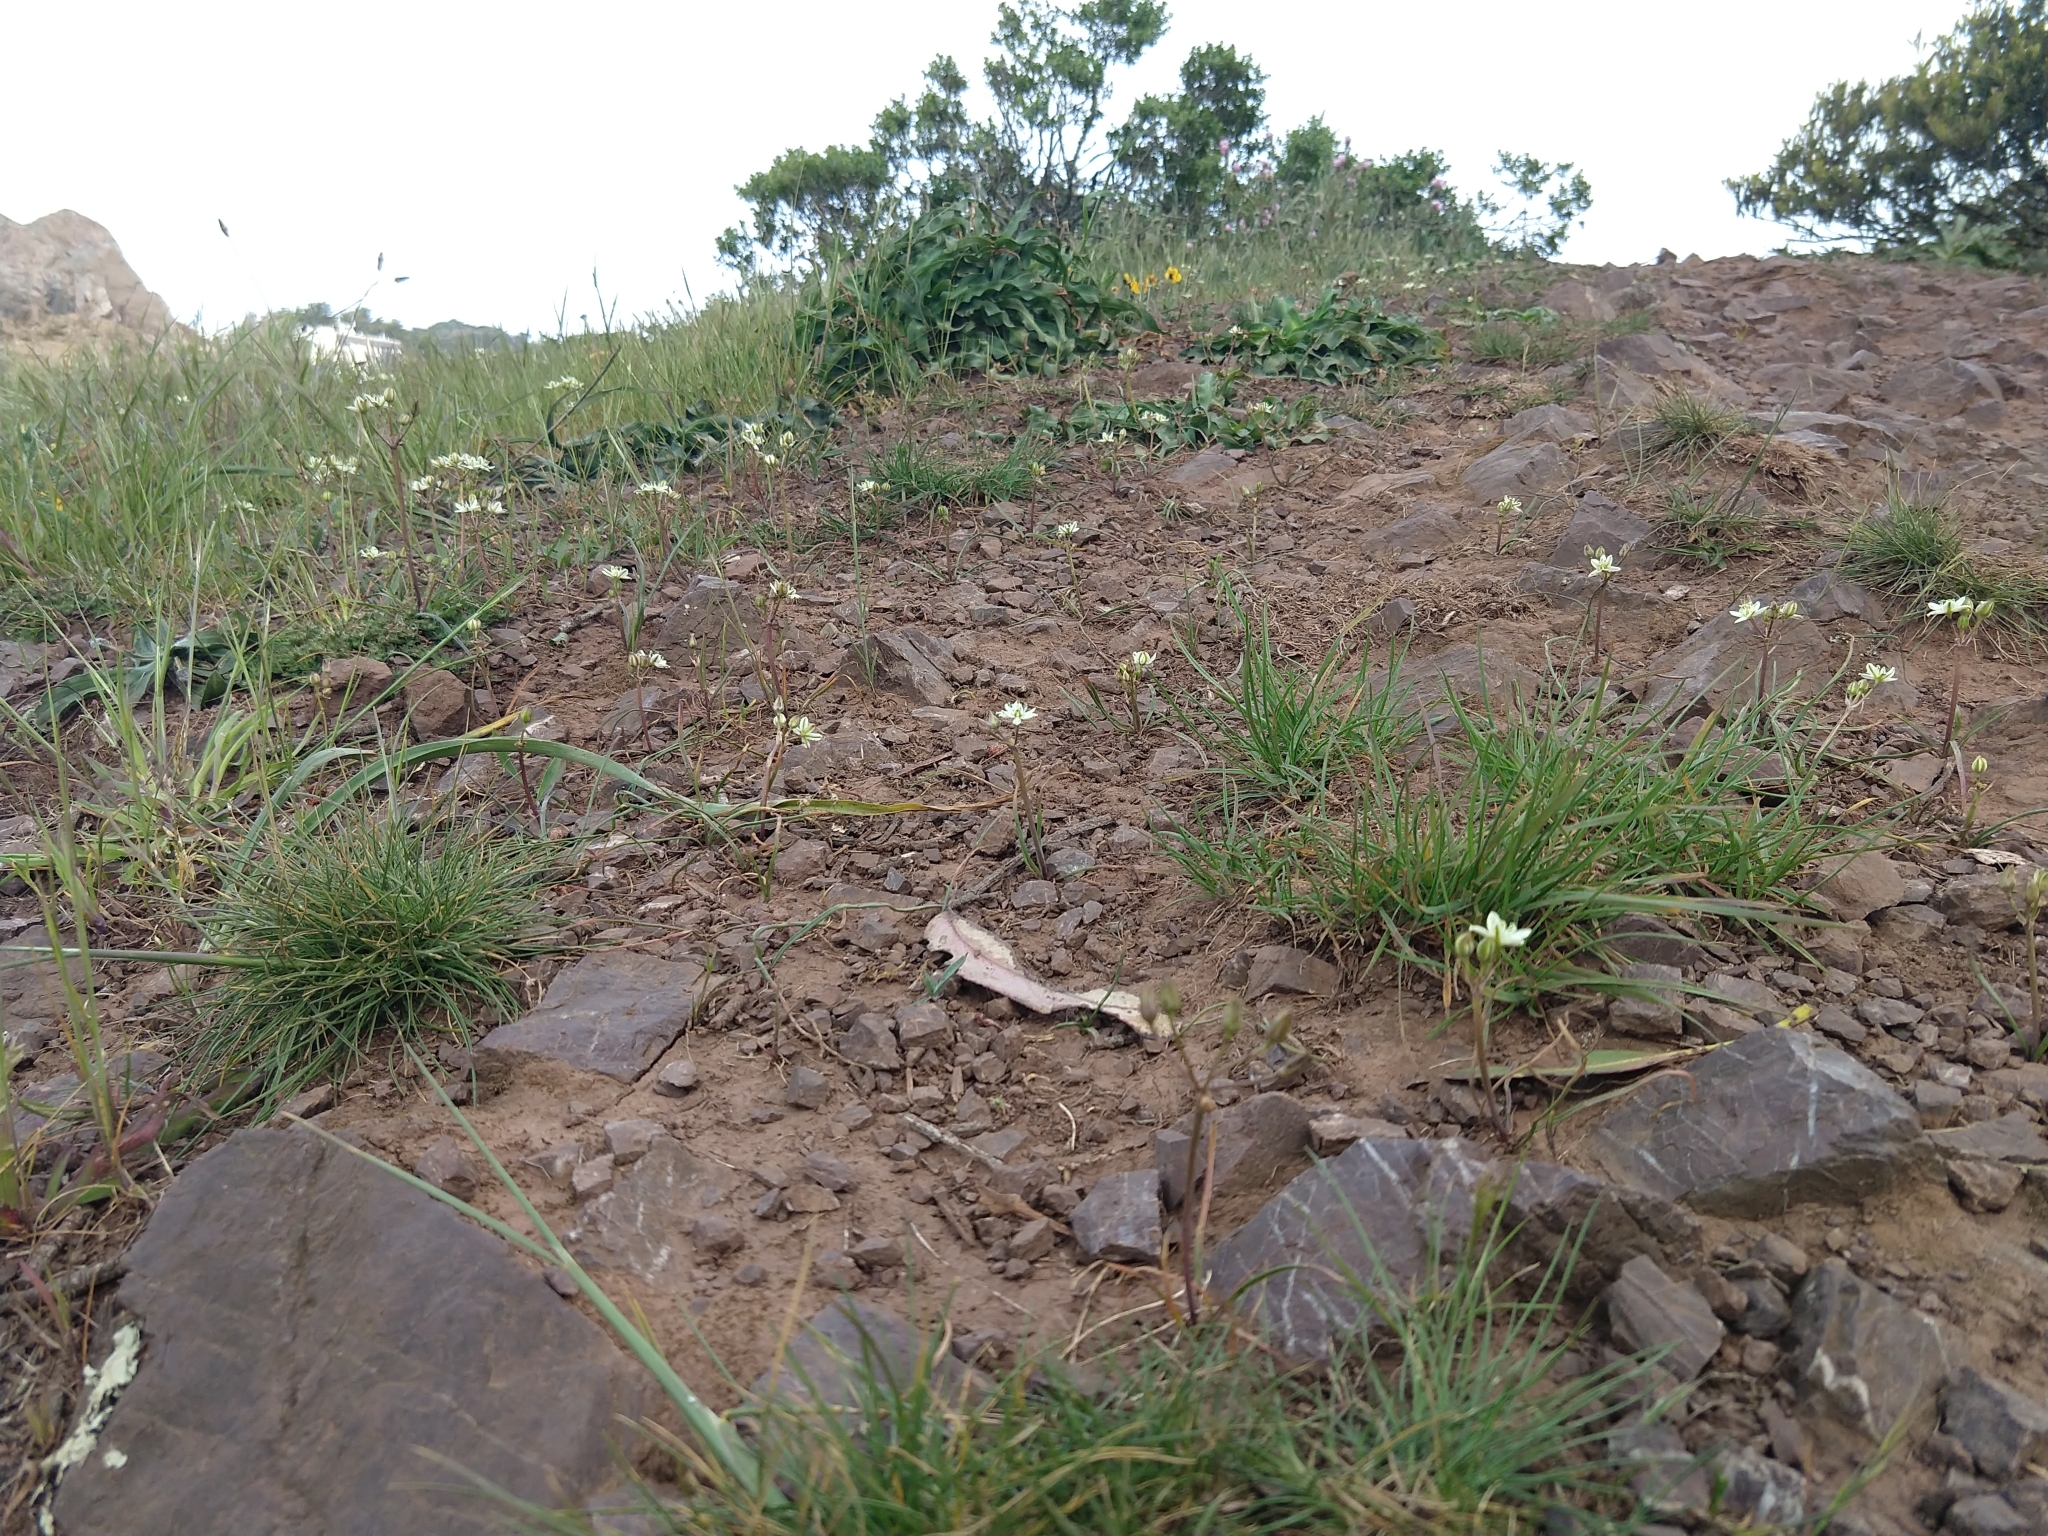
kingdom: Plantae
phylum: Tracheophyta
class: Liliopsida
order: Asparagales
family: Asparagaceae
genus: Muilla
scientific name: Muilla maritima
